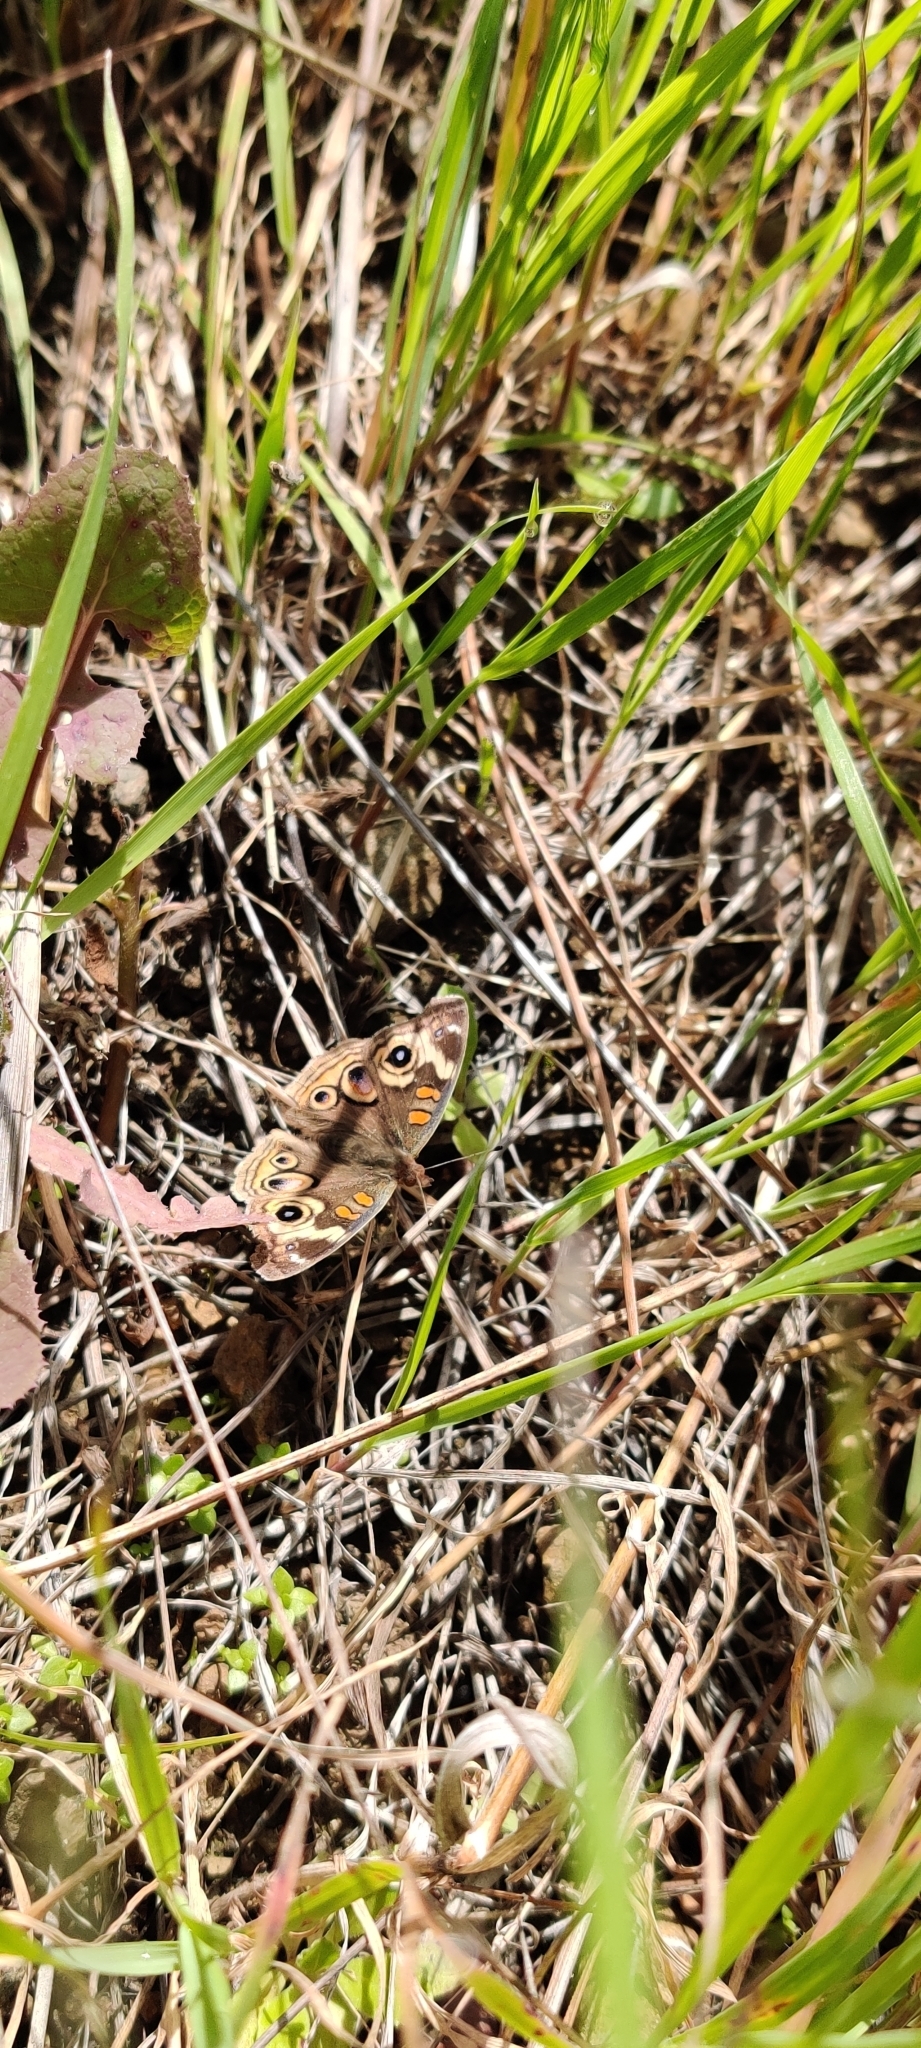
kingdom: Animalia
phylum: Arthropoda
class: Insecta
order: Lepidoptera
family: Nymphalidae
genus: Junonia
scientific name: Junonia grisea
